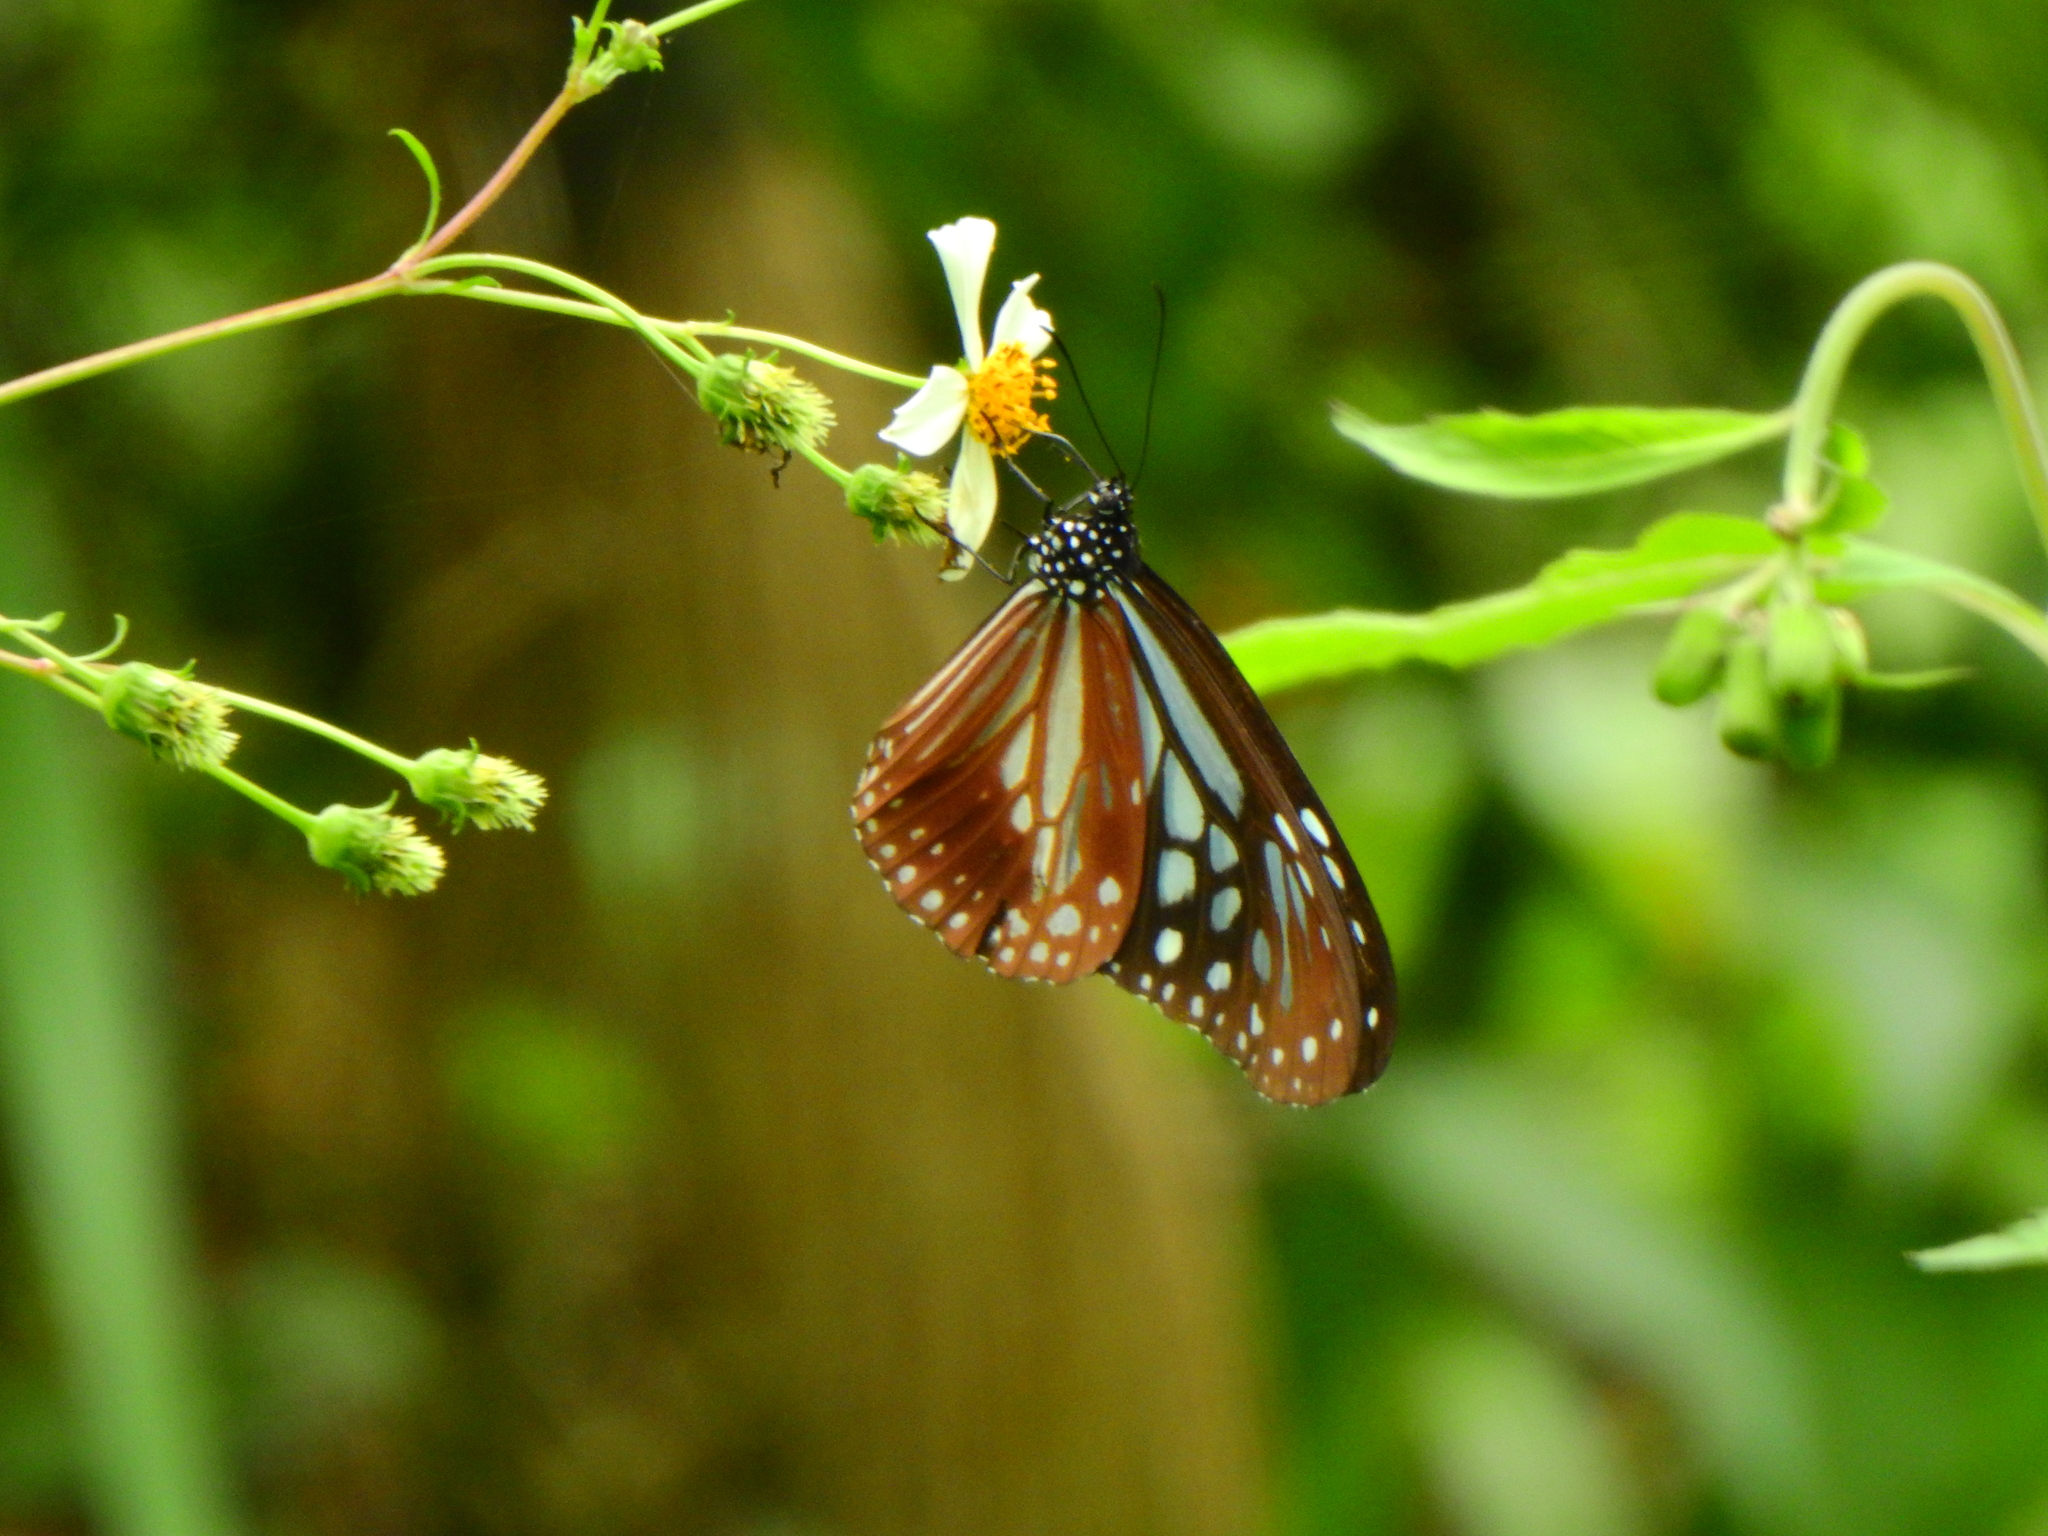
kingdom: Animalia
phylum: Arthropoda
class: Insecta
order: Lepidoptera
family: Nymphalidae
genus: Parantica
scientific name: Parantica melaneus
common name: Chocolate tiger
